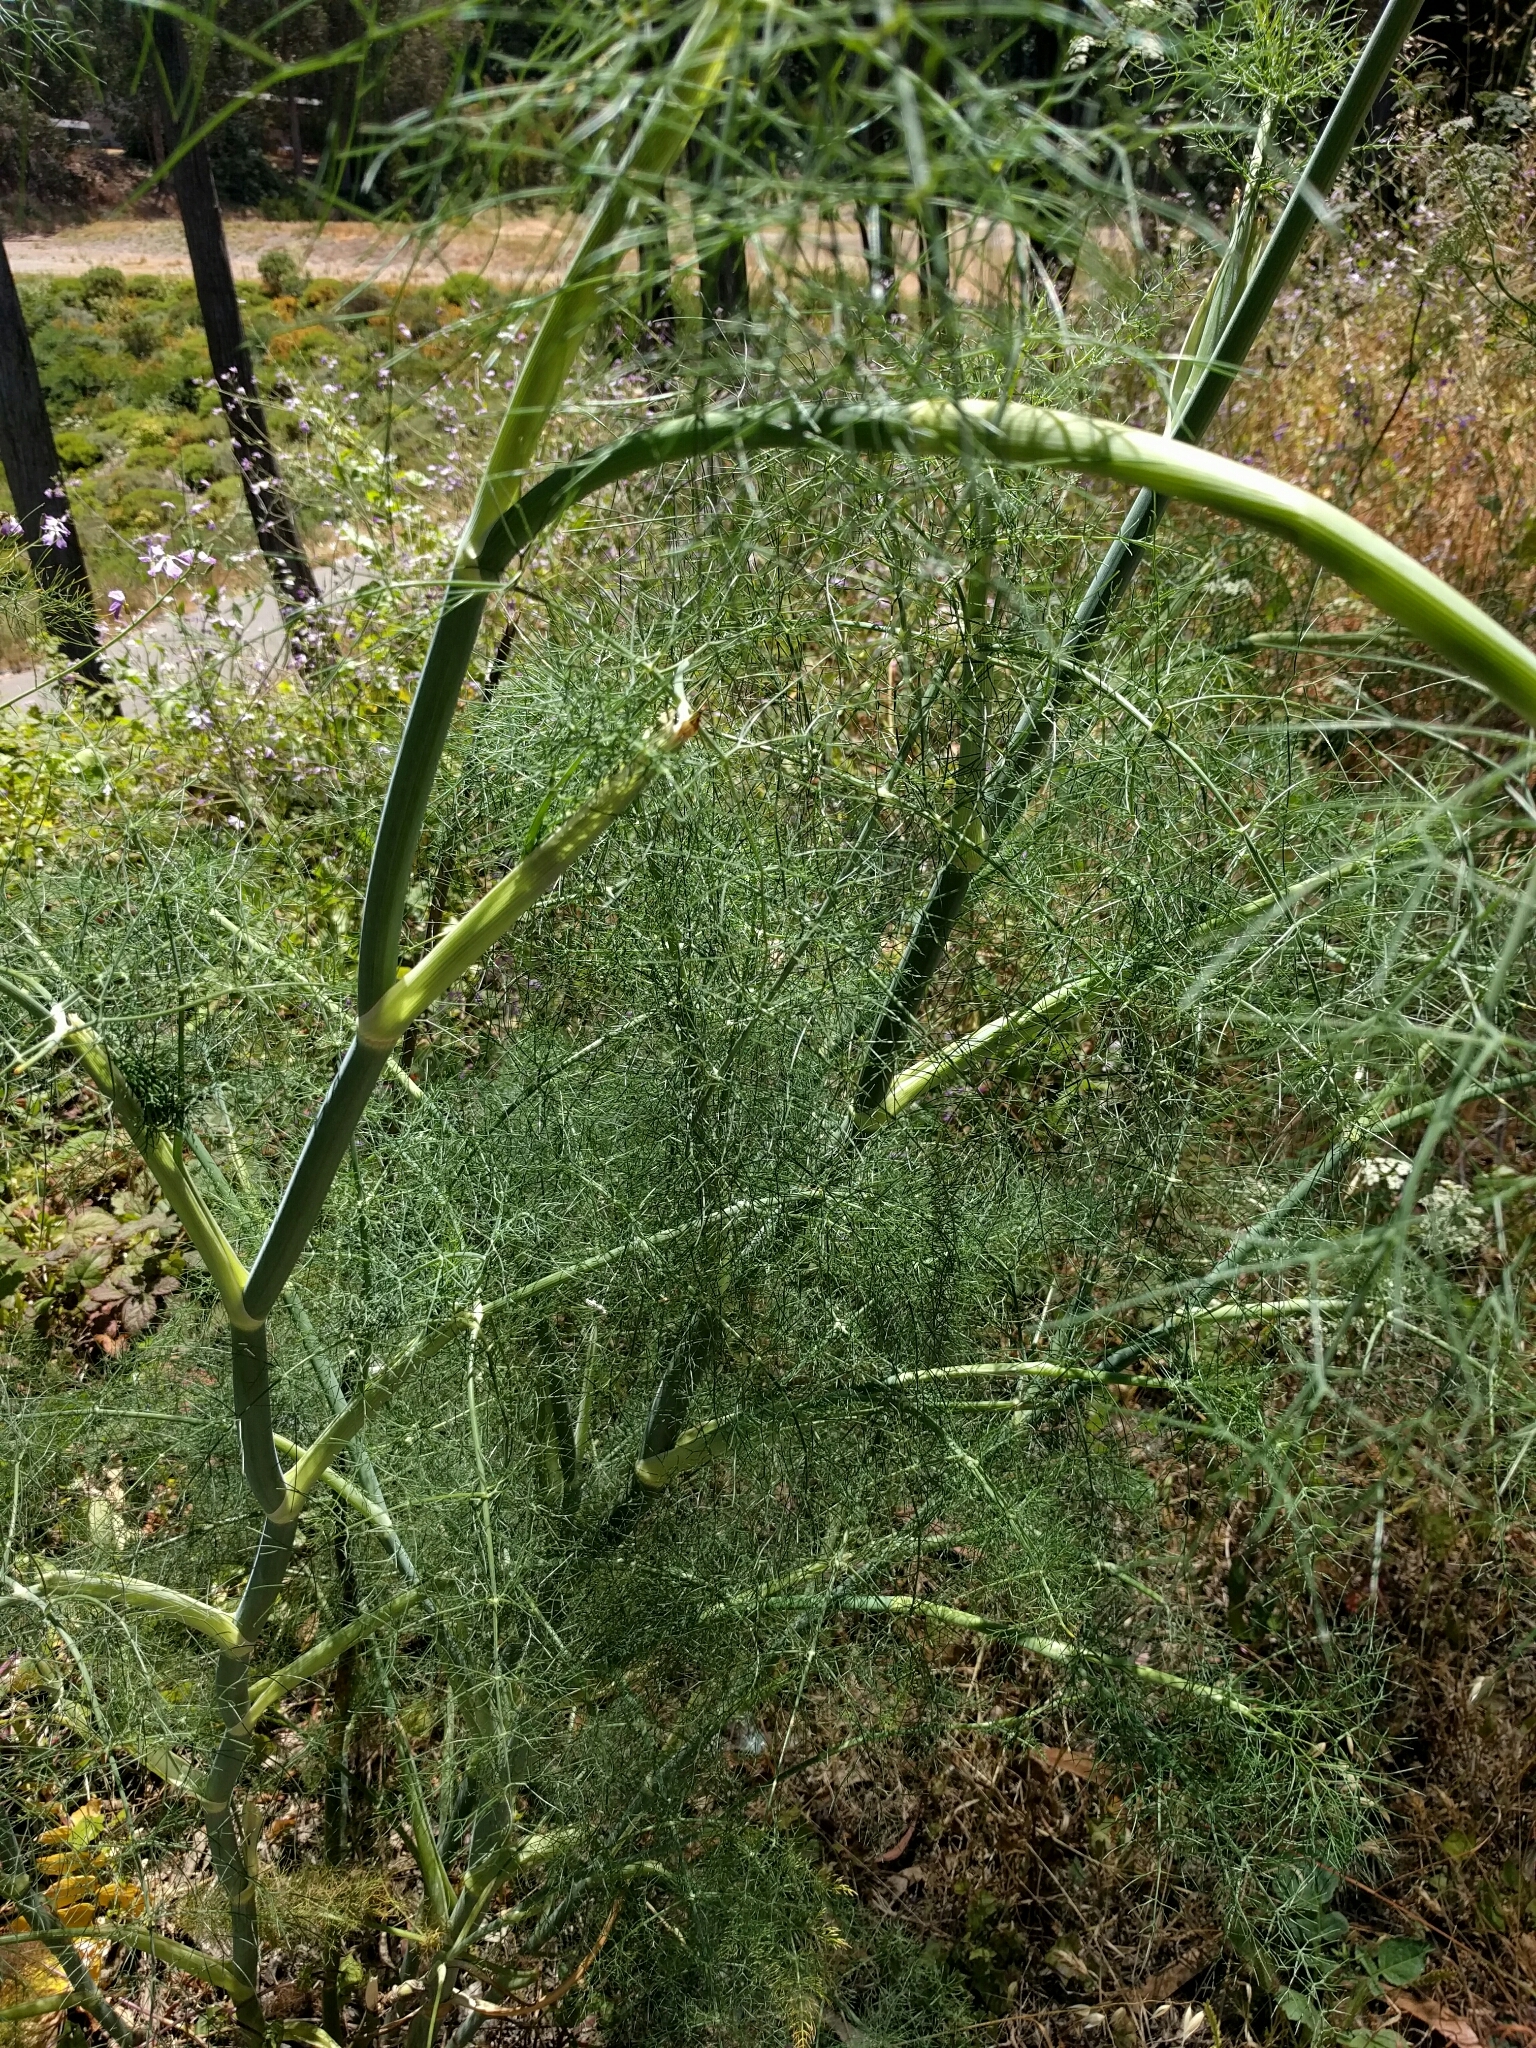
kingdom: Plantae
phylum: Tracheophyta
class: Magnoliopsida
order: Apiales
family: Apiaceae
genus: Foeniculum
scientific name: Foeniculum vulgare
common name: Fennel
